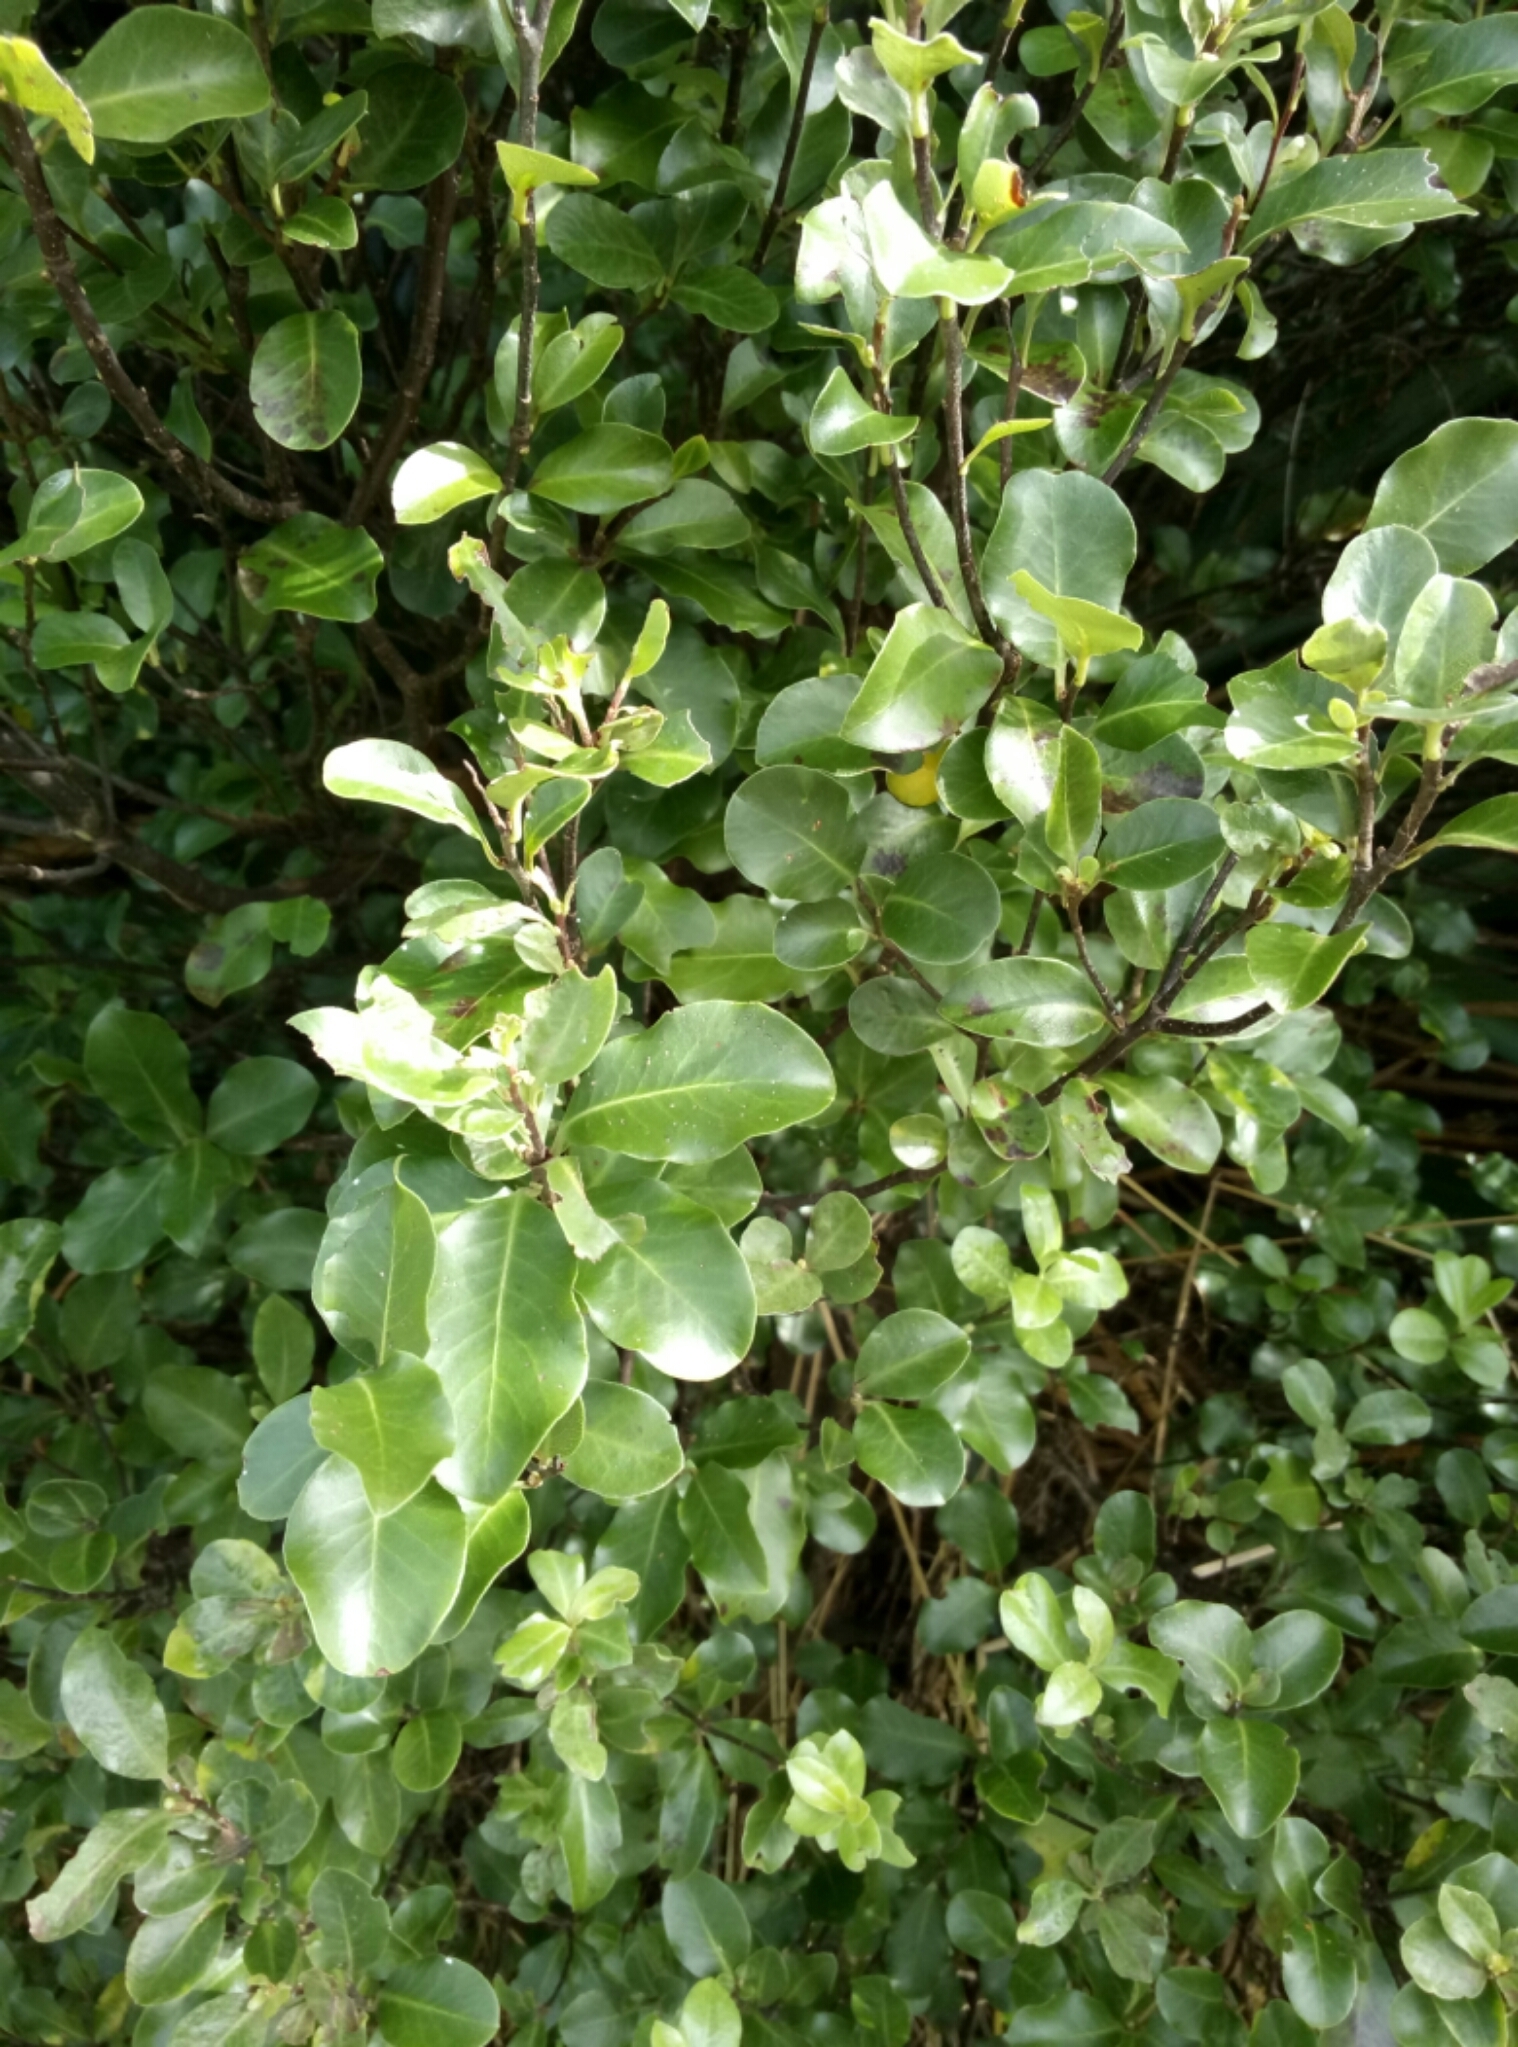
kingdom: Plantae
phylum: Tracheophyta
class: Magnoliopsida
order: Apiales
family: Pittosporaceae
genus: Pittosporum
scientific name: Pittosporum tenuifolium
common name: Kohuhu
